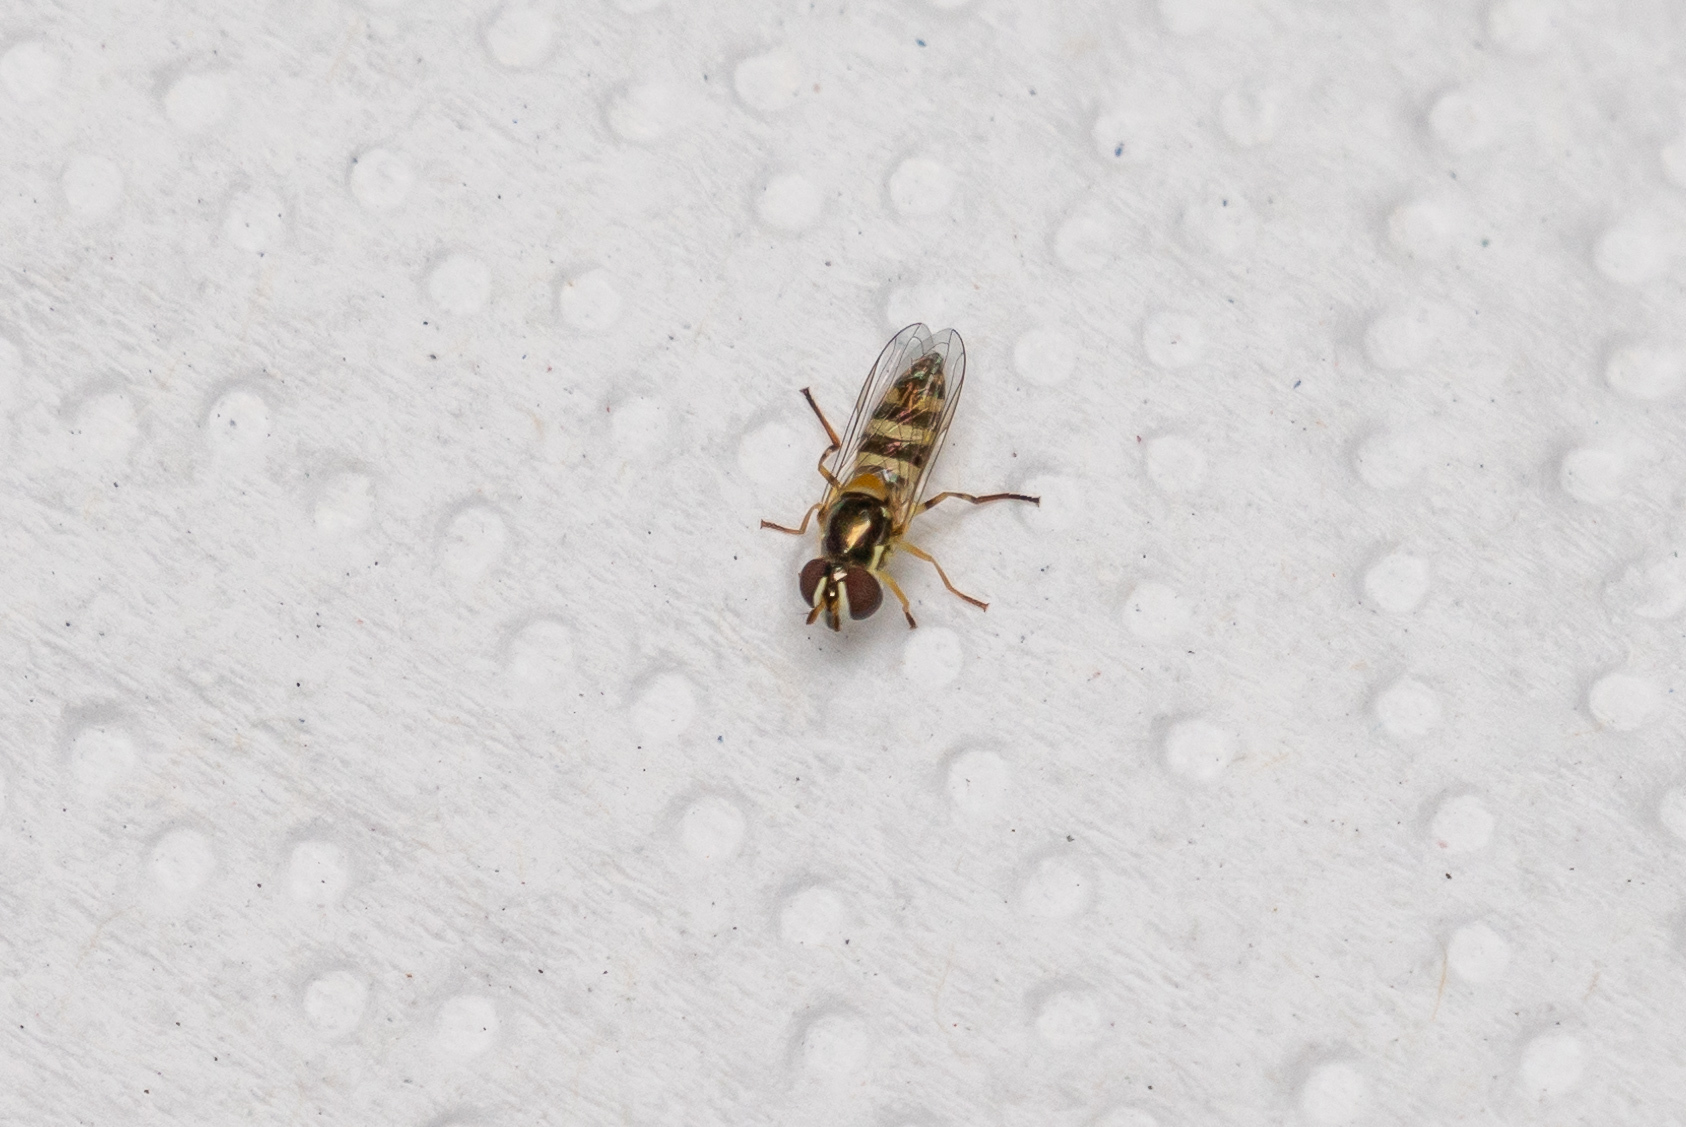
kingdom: Animalia
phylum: Arthropoda
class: Insecta
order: Diptera
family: Syrphidae
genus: Allograpta
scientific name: Allograpta exotica
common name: Syrphid fly
